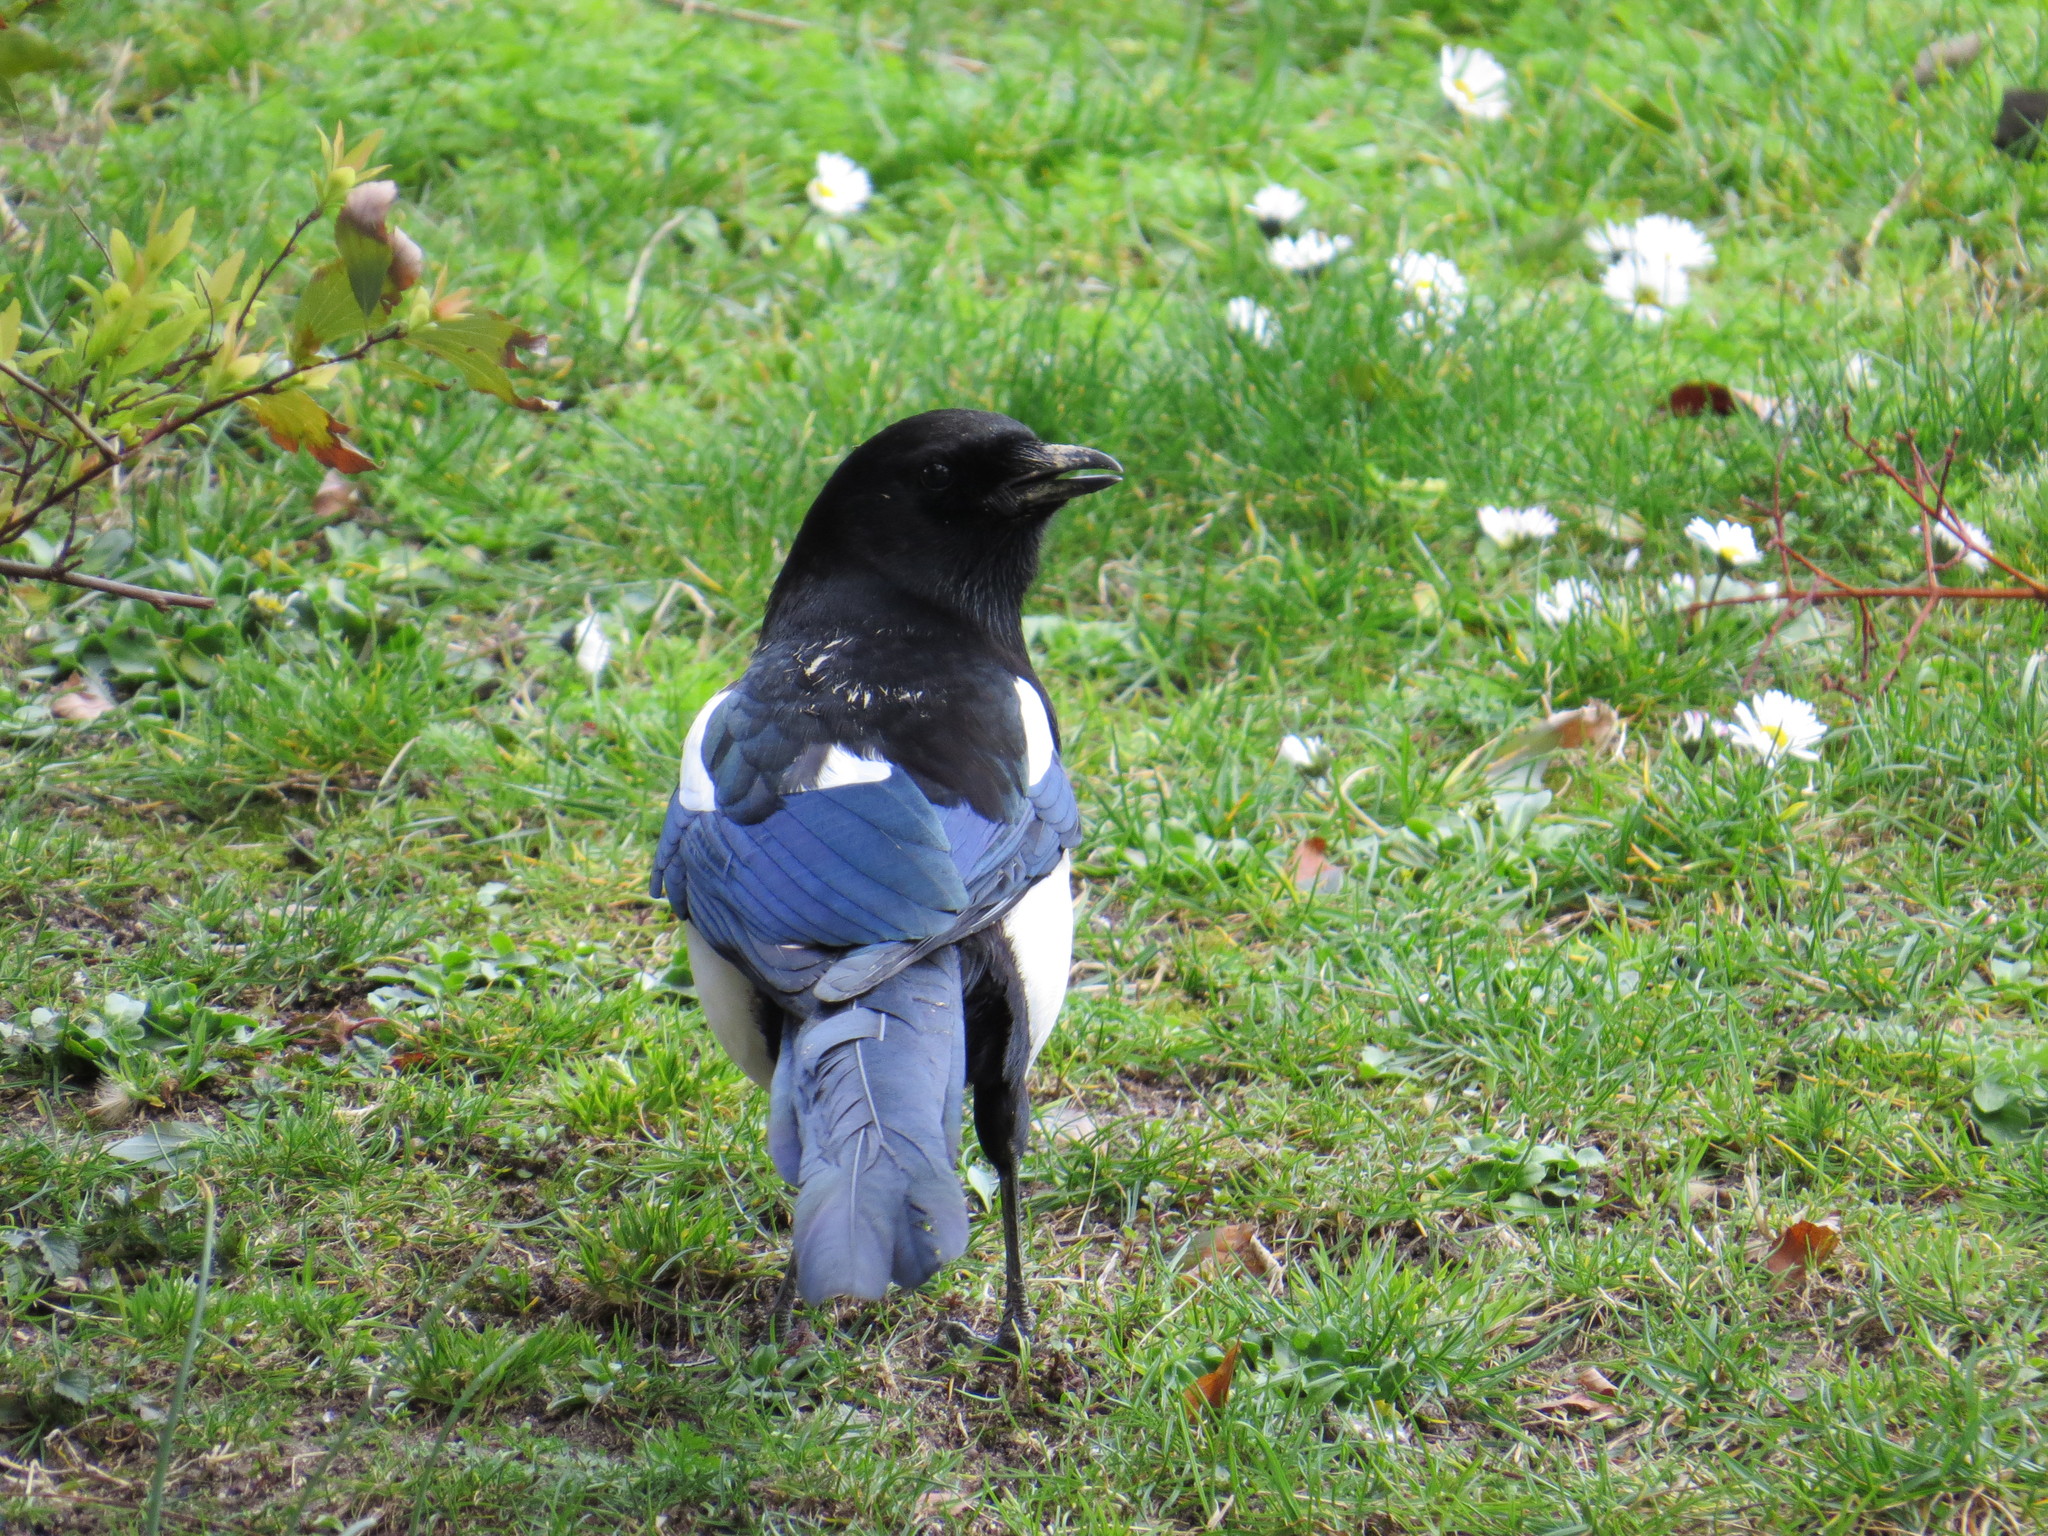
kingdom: Animalia
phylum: Chordata
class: Aves
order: Passeriformes
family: Corvidae
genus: Pica
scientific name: Pica pica
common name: Eurasian magpie
